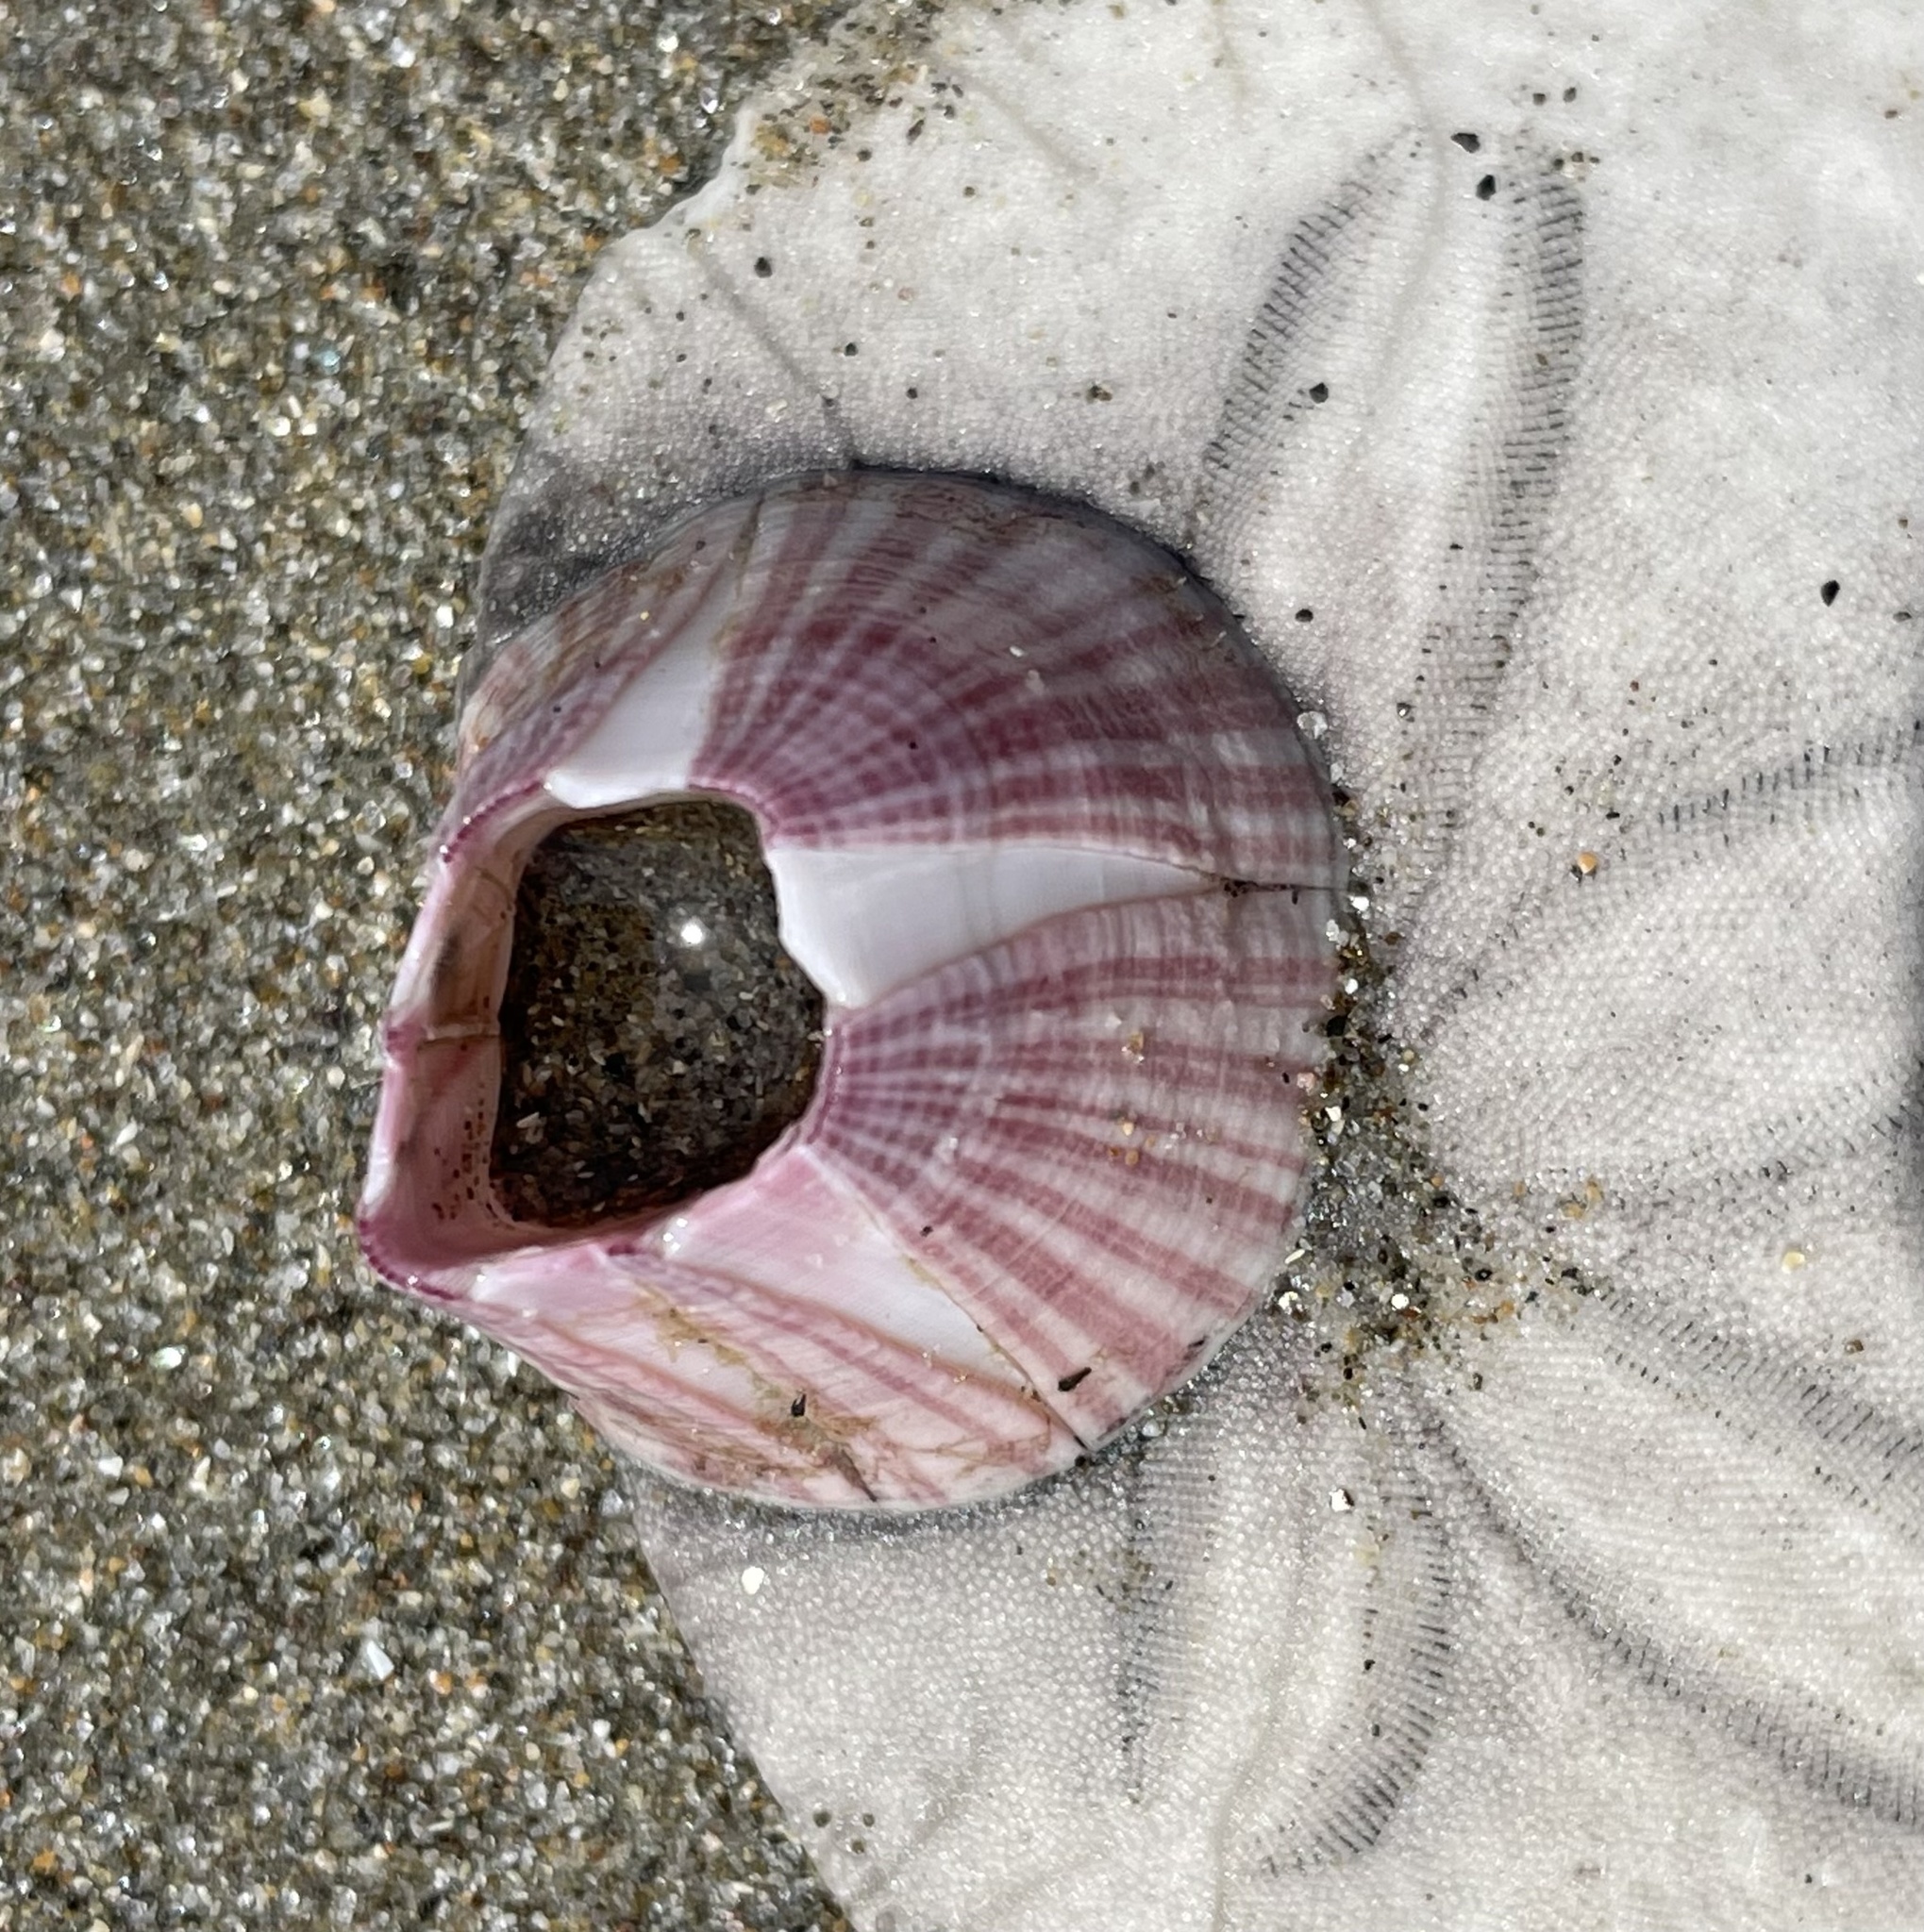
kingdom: Animalia
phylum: Echinodermata
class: Echinoidea
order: Echinolampadacea
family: Dendrasteridae
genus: Dendraster
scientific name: Dendraster excentricus
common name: Eccentric sand dollar sea urchin
